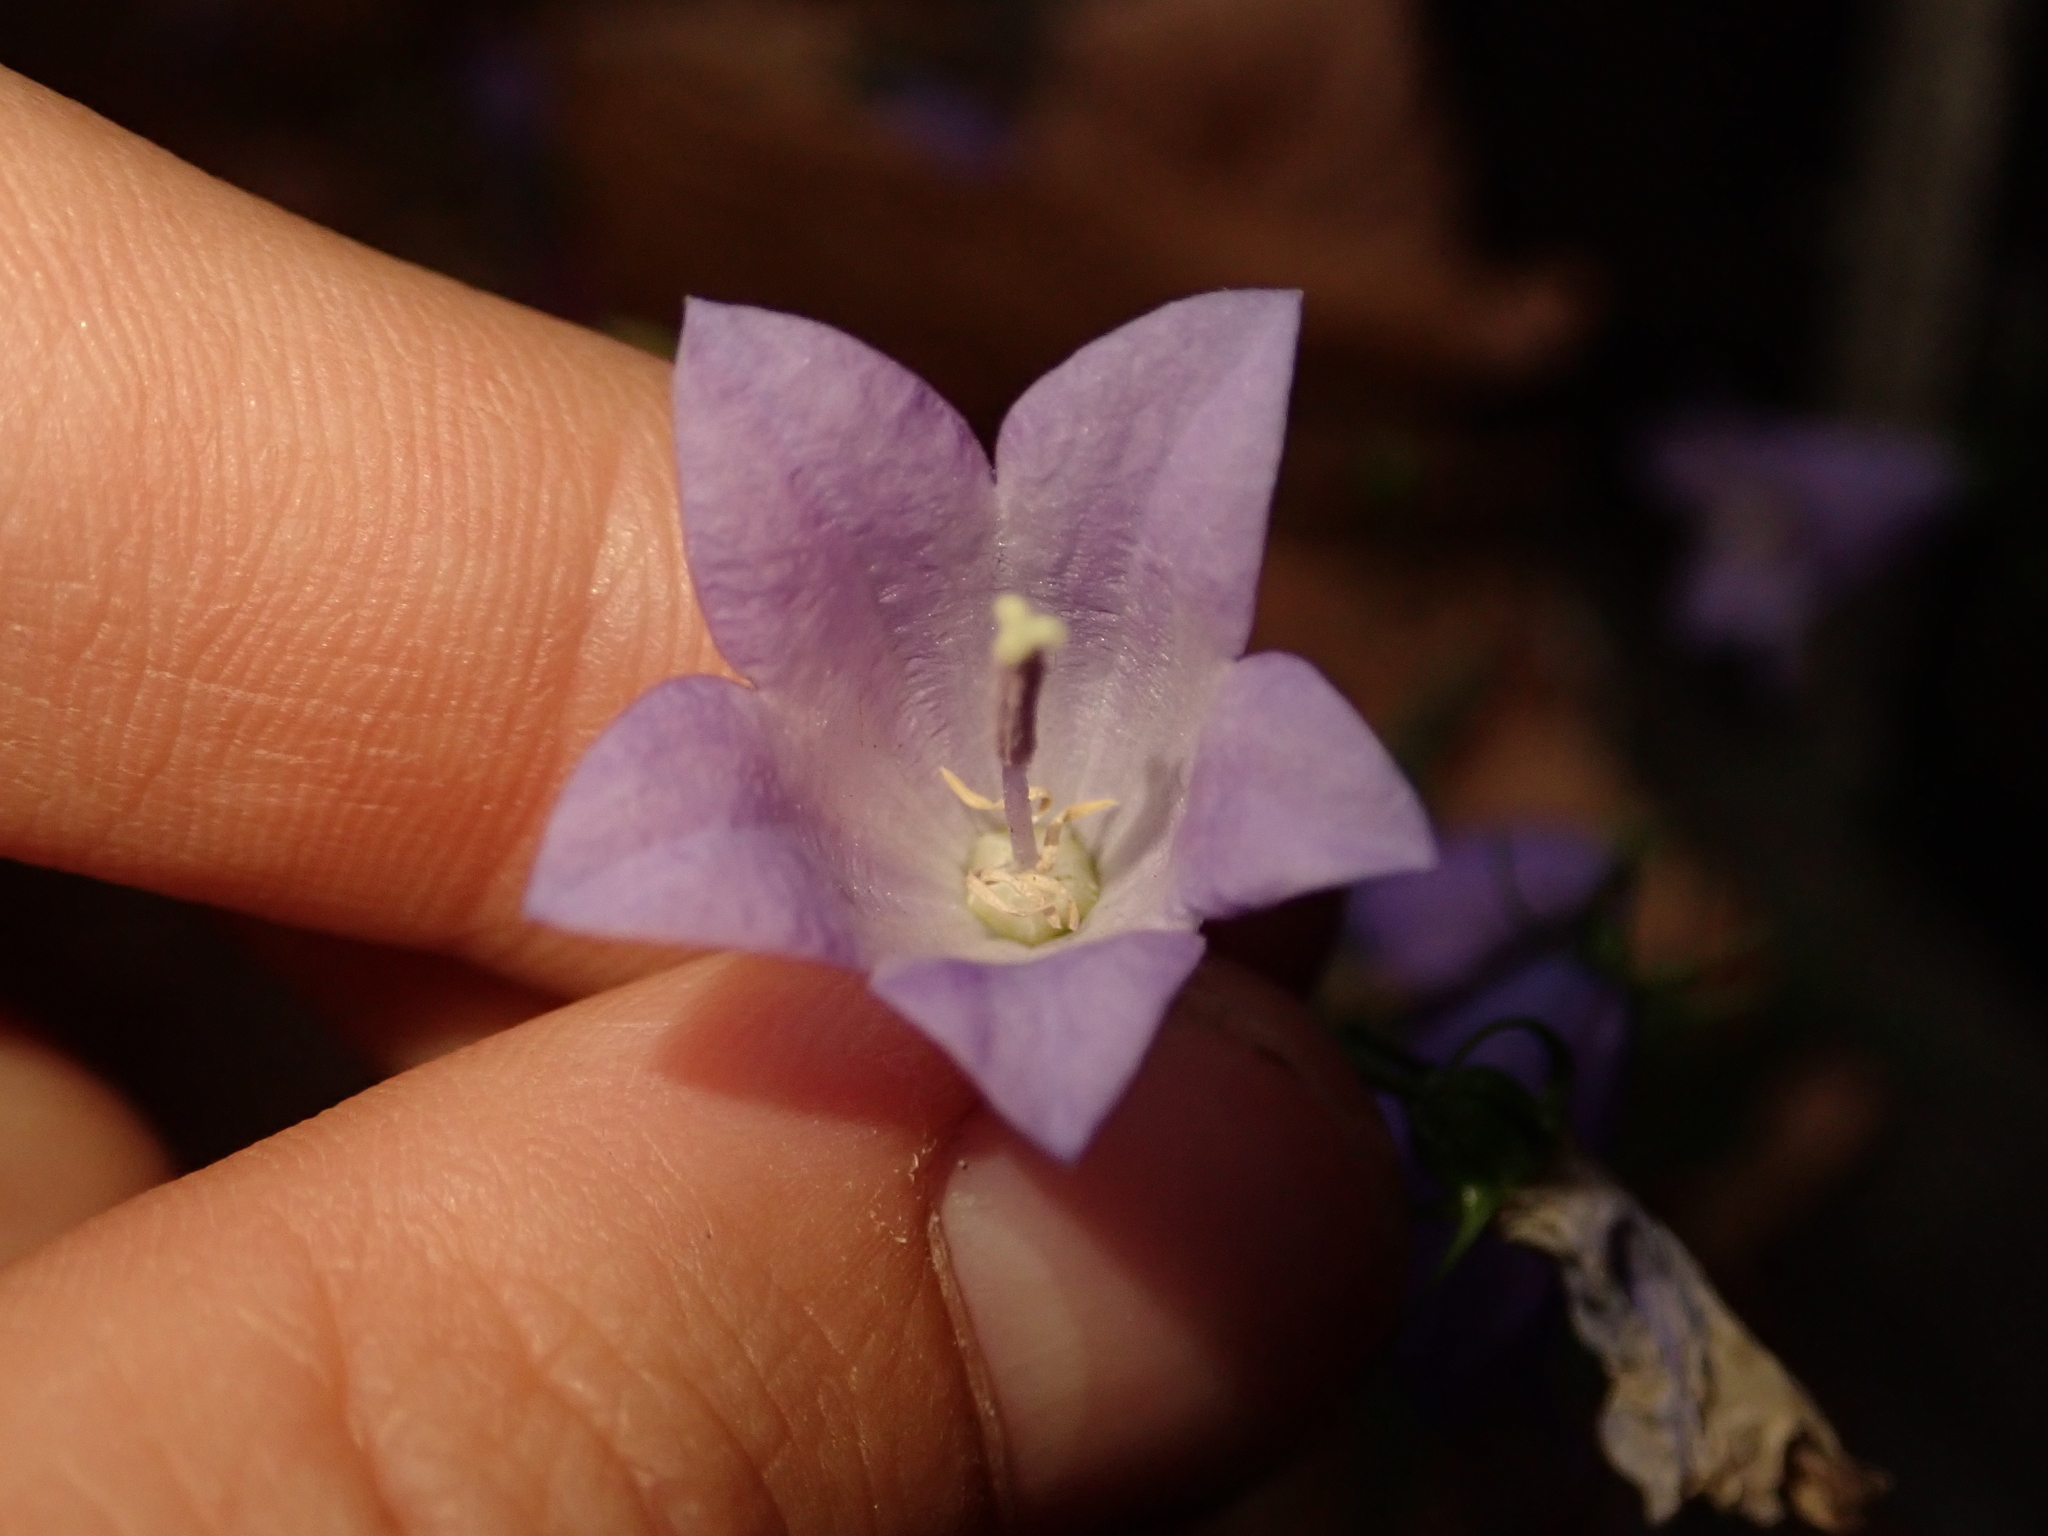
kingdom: Plantae
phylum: Tracheophyta
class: Magnoliopsida
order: Asterales
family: Campanulaceae
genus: Campanula
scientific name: Campanula rapunculoides
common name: Creeping bellflower
